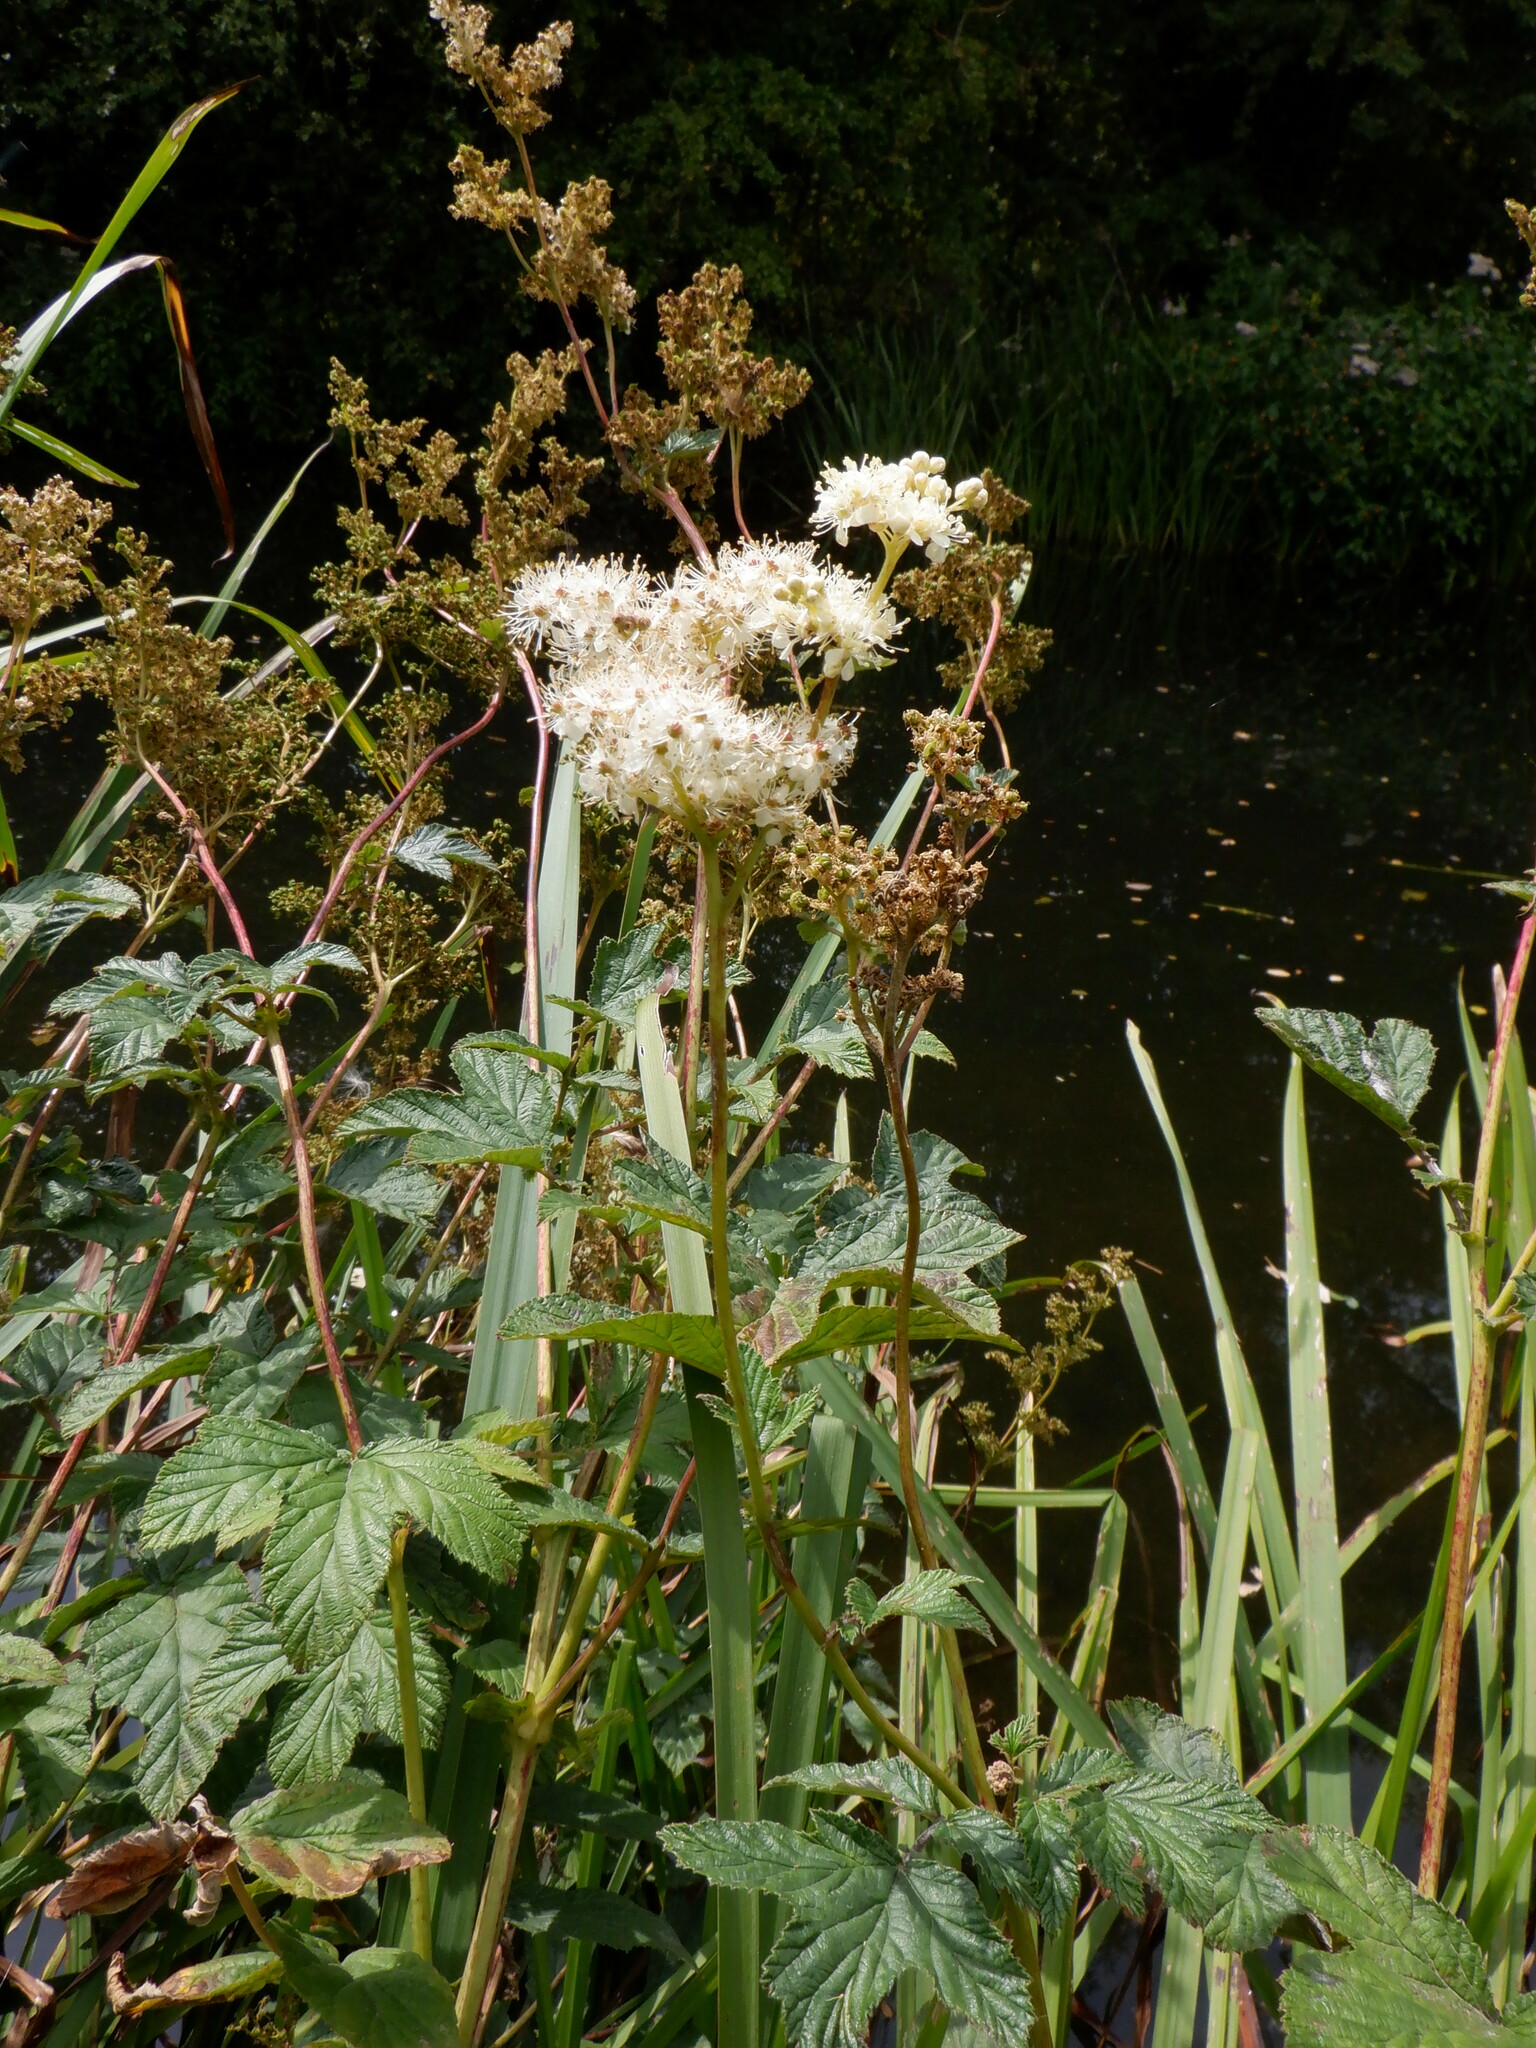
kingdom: Plantae
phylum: Tracheophyta
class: Magnoliopsida
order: Rosales
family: Rosaceae
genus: Filipendula
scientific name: Filipendula ulmaria
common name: Meadowsweet
